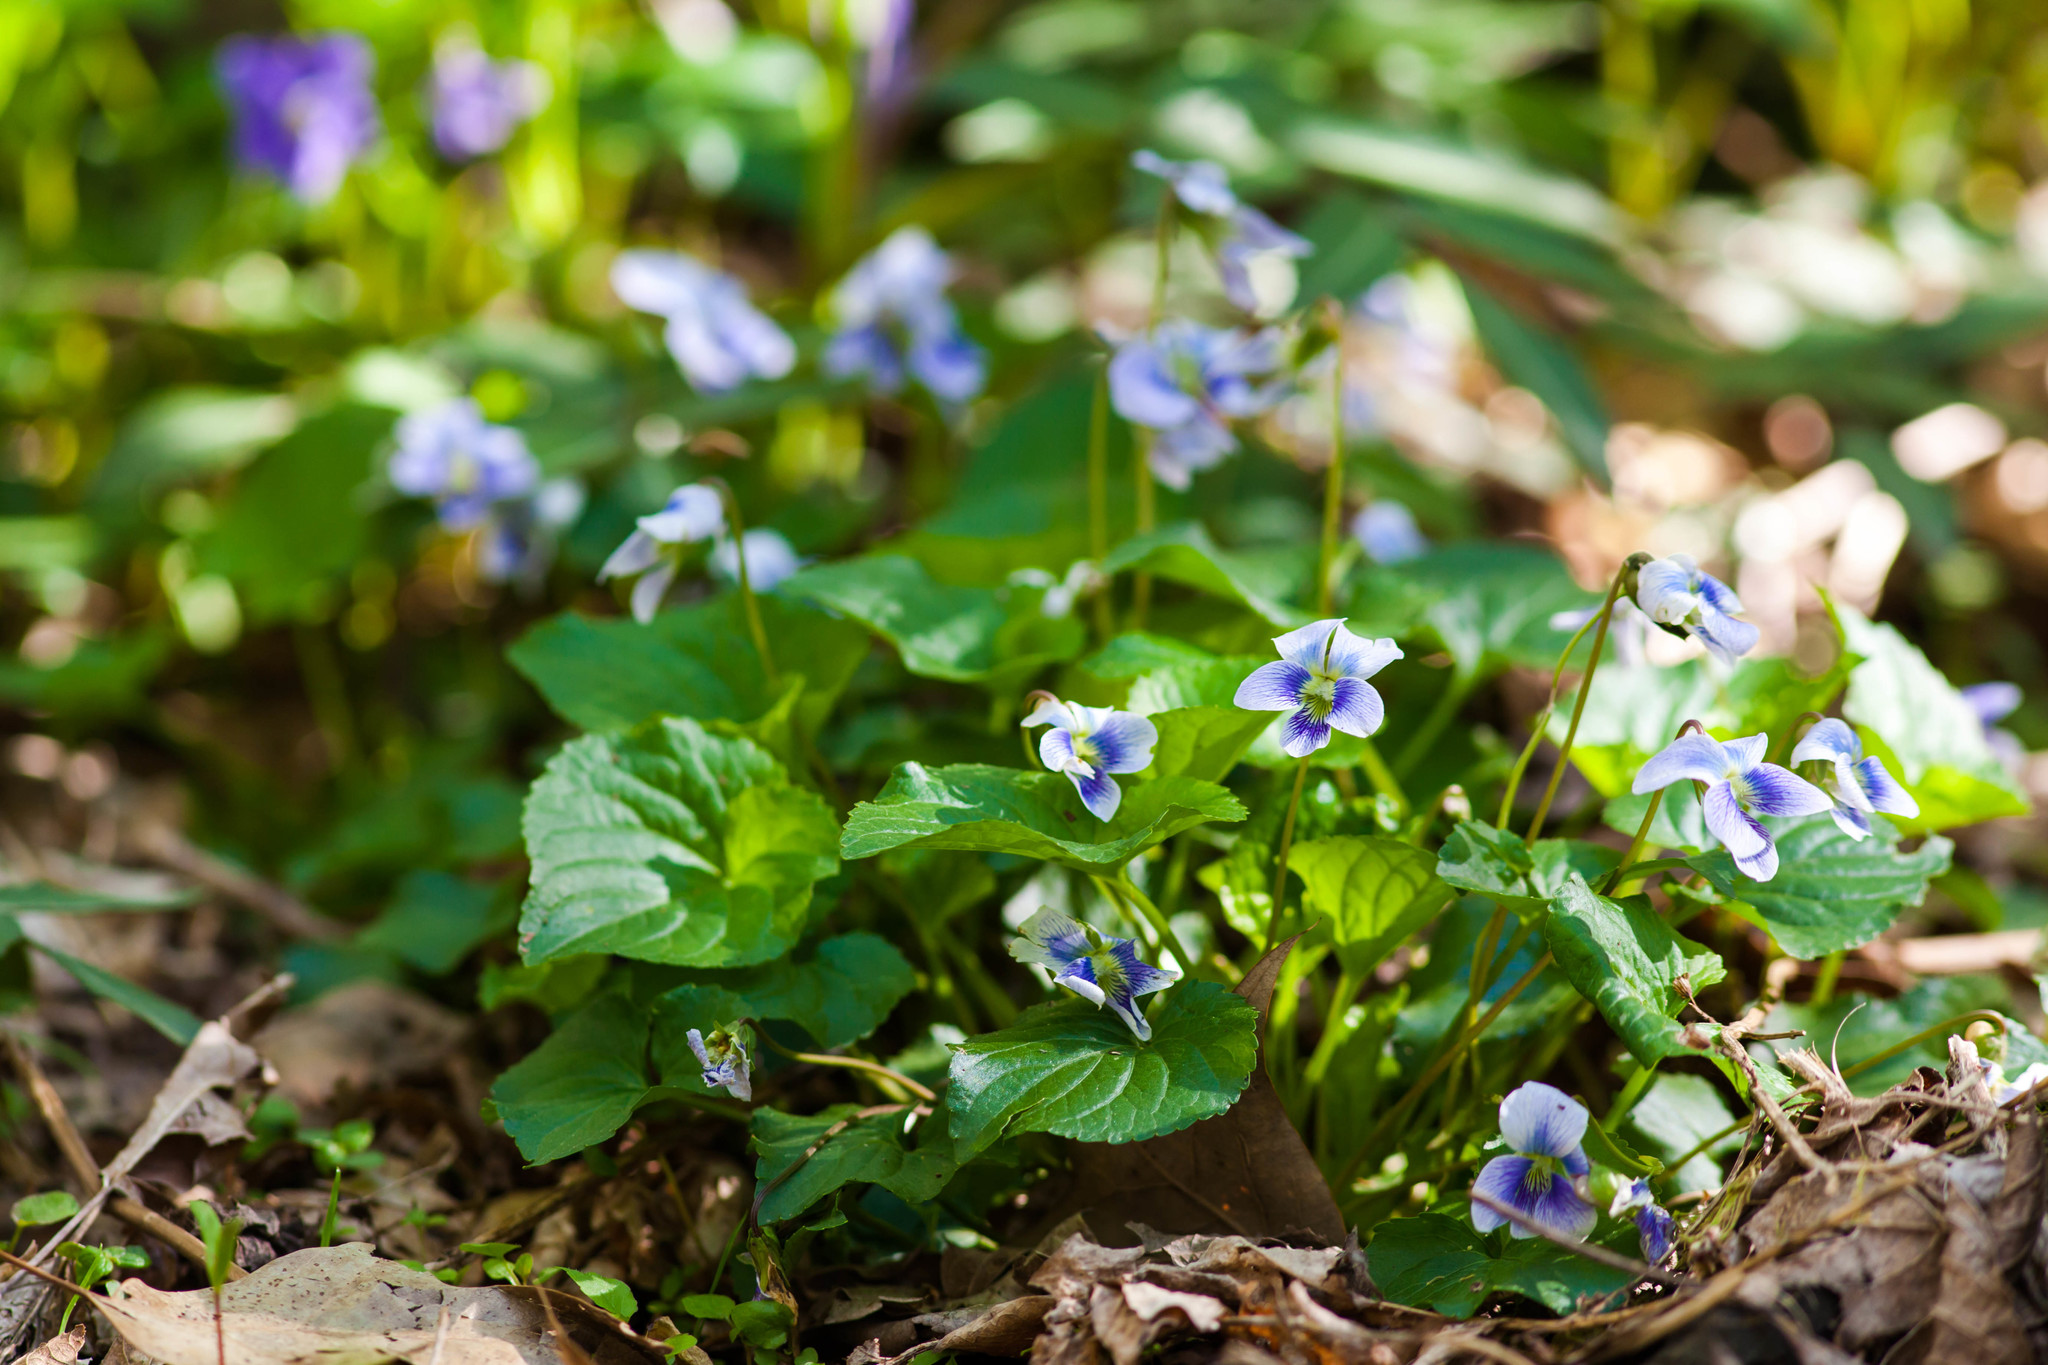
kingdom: Plantae
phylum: Tracheophyta
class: Magnoliopsida
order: Malpighiales
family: Violaceae
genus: Viola
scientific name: Viola sororia
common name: Dooryard violet
